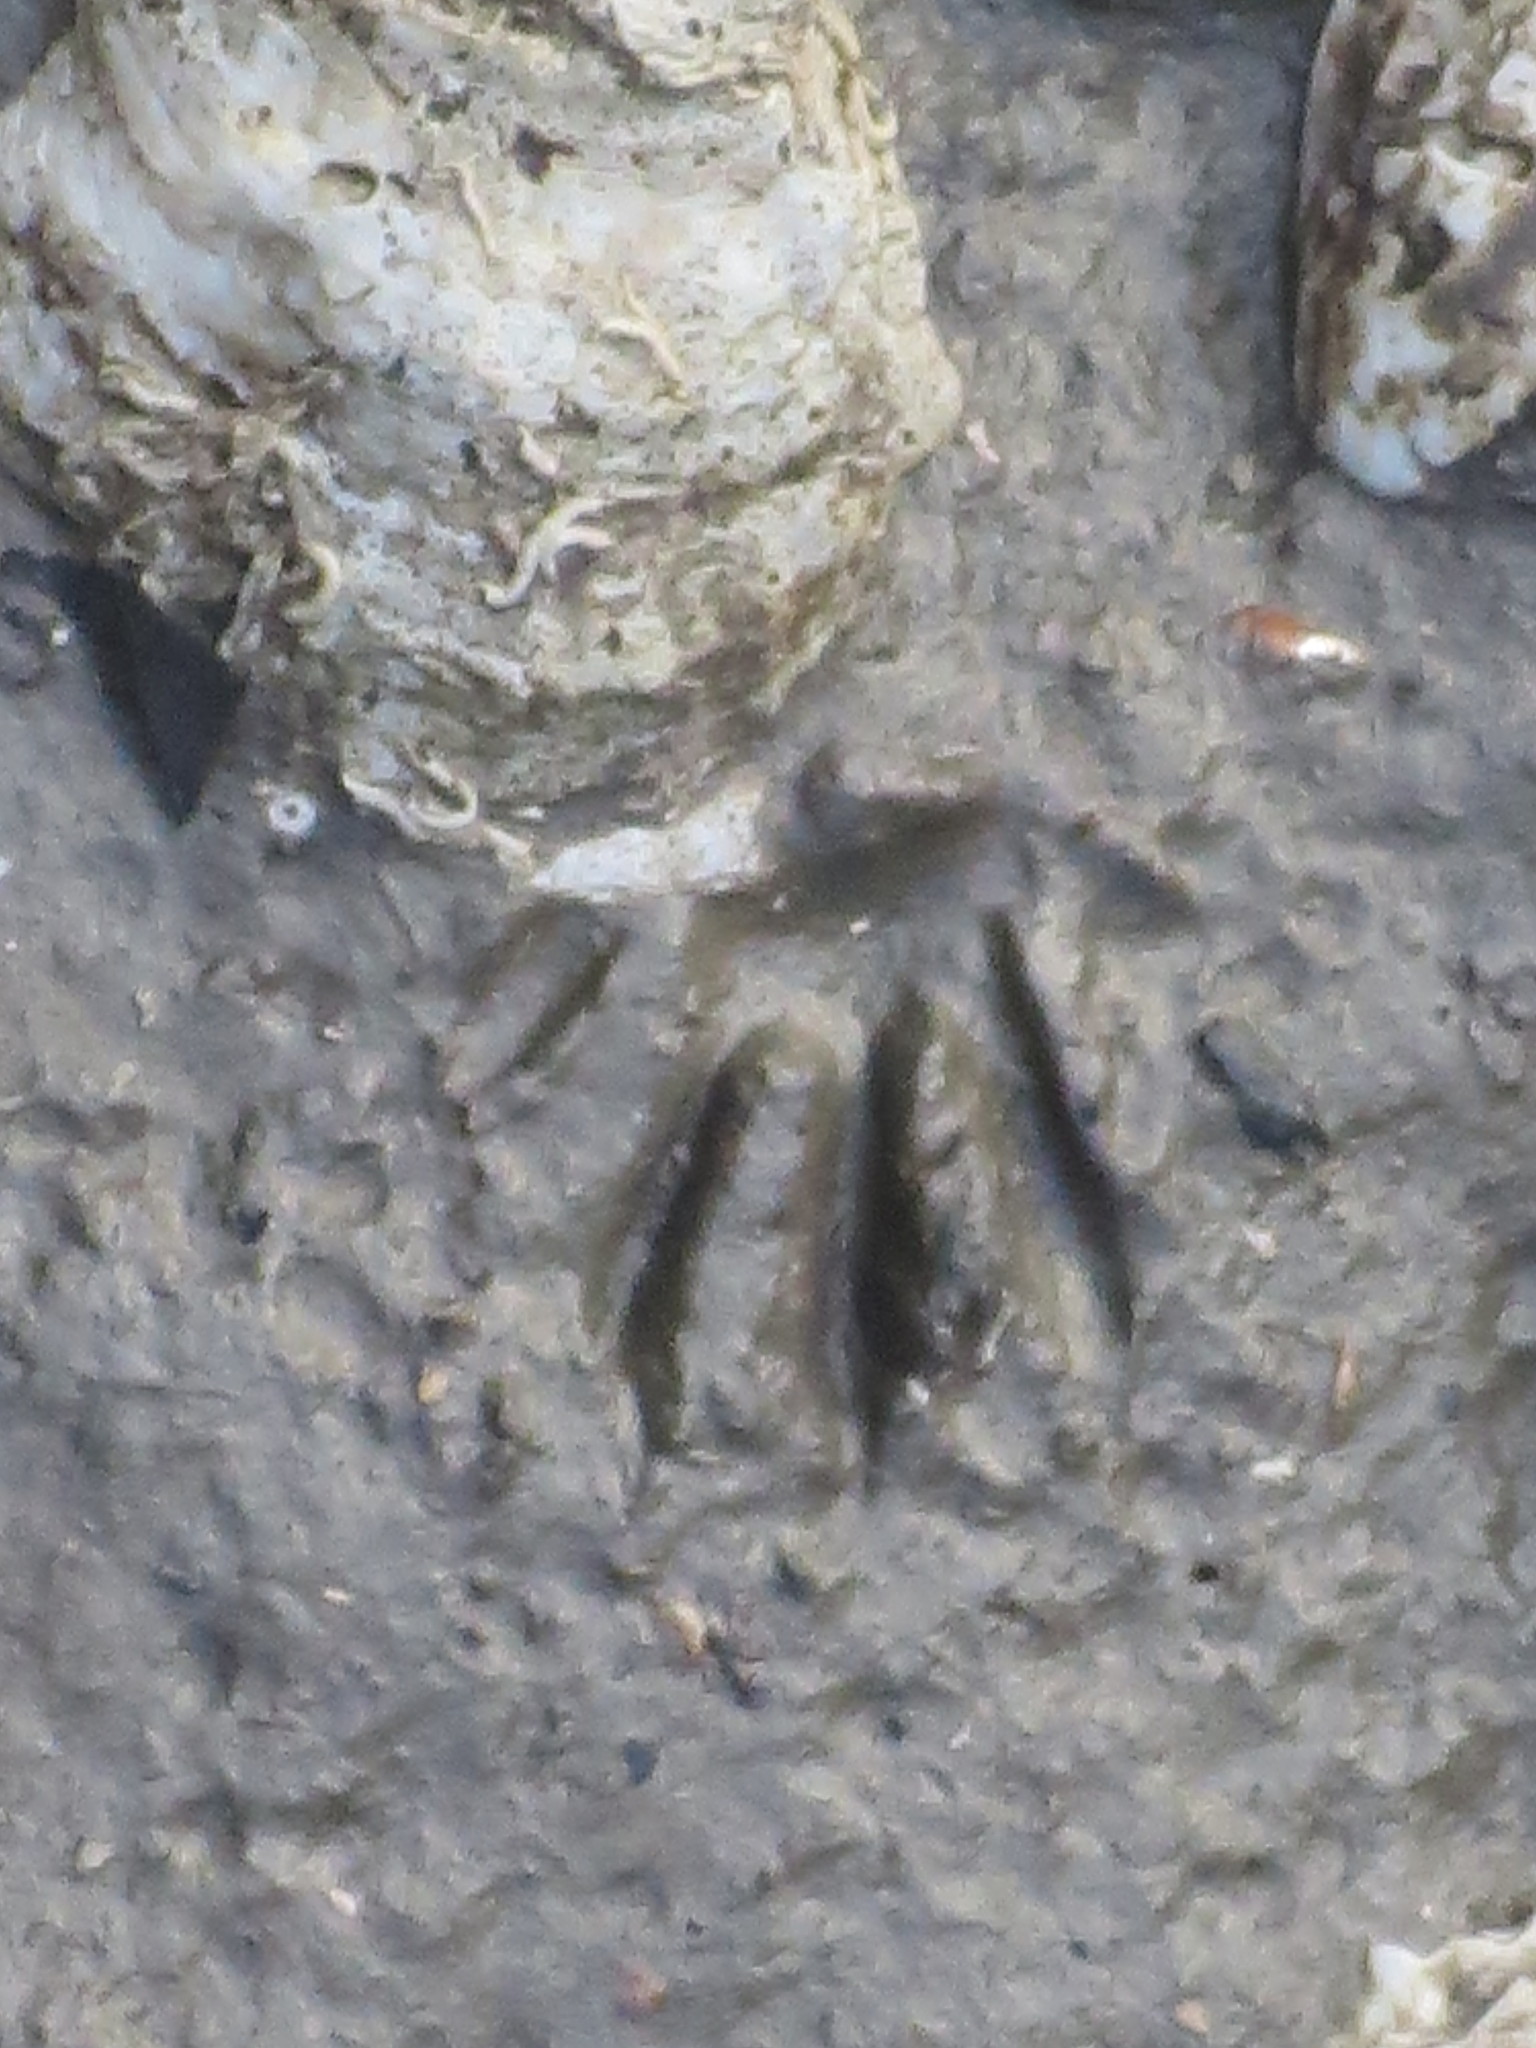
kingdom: Animalia
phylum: Chordata
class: Mammalia
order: Carnivora
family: Procyonidae
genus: Procyon
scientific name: Procyon lotor
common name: Raccoon
